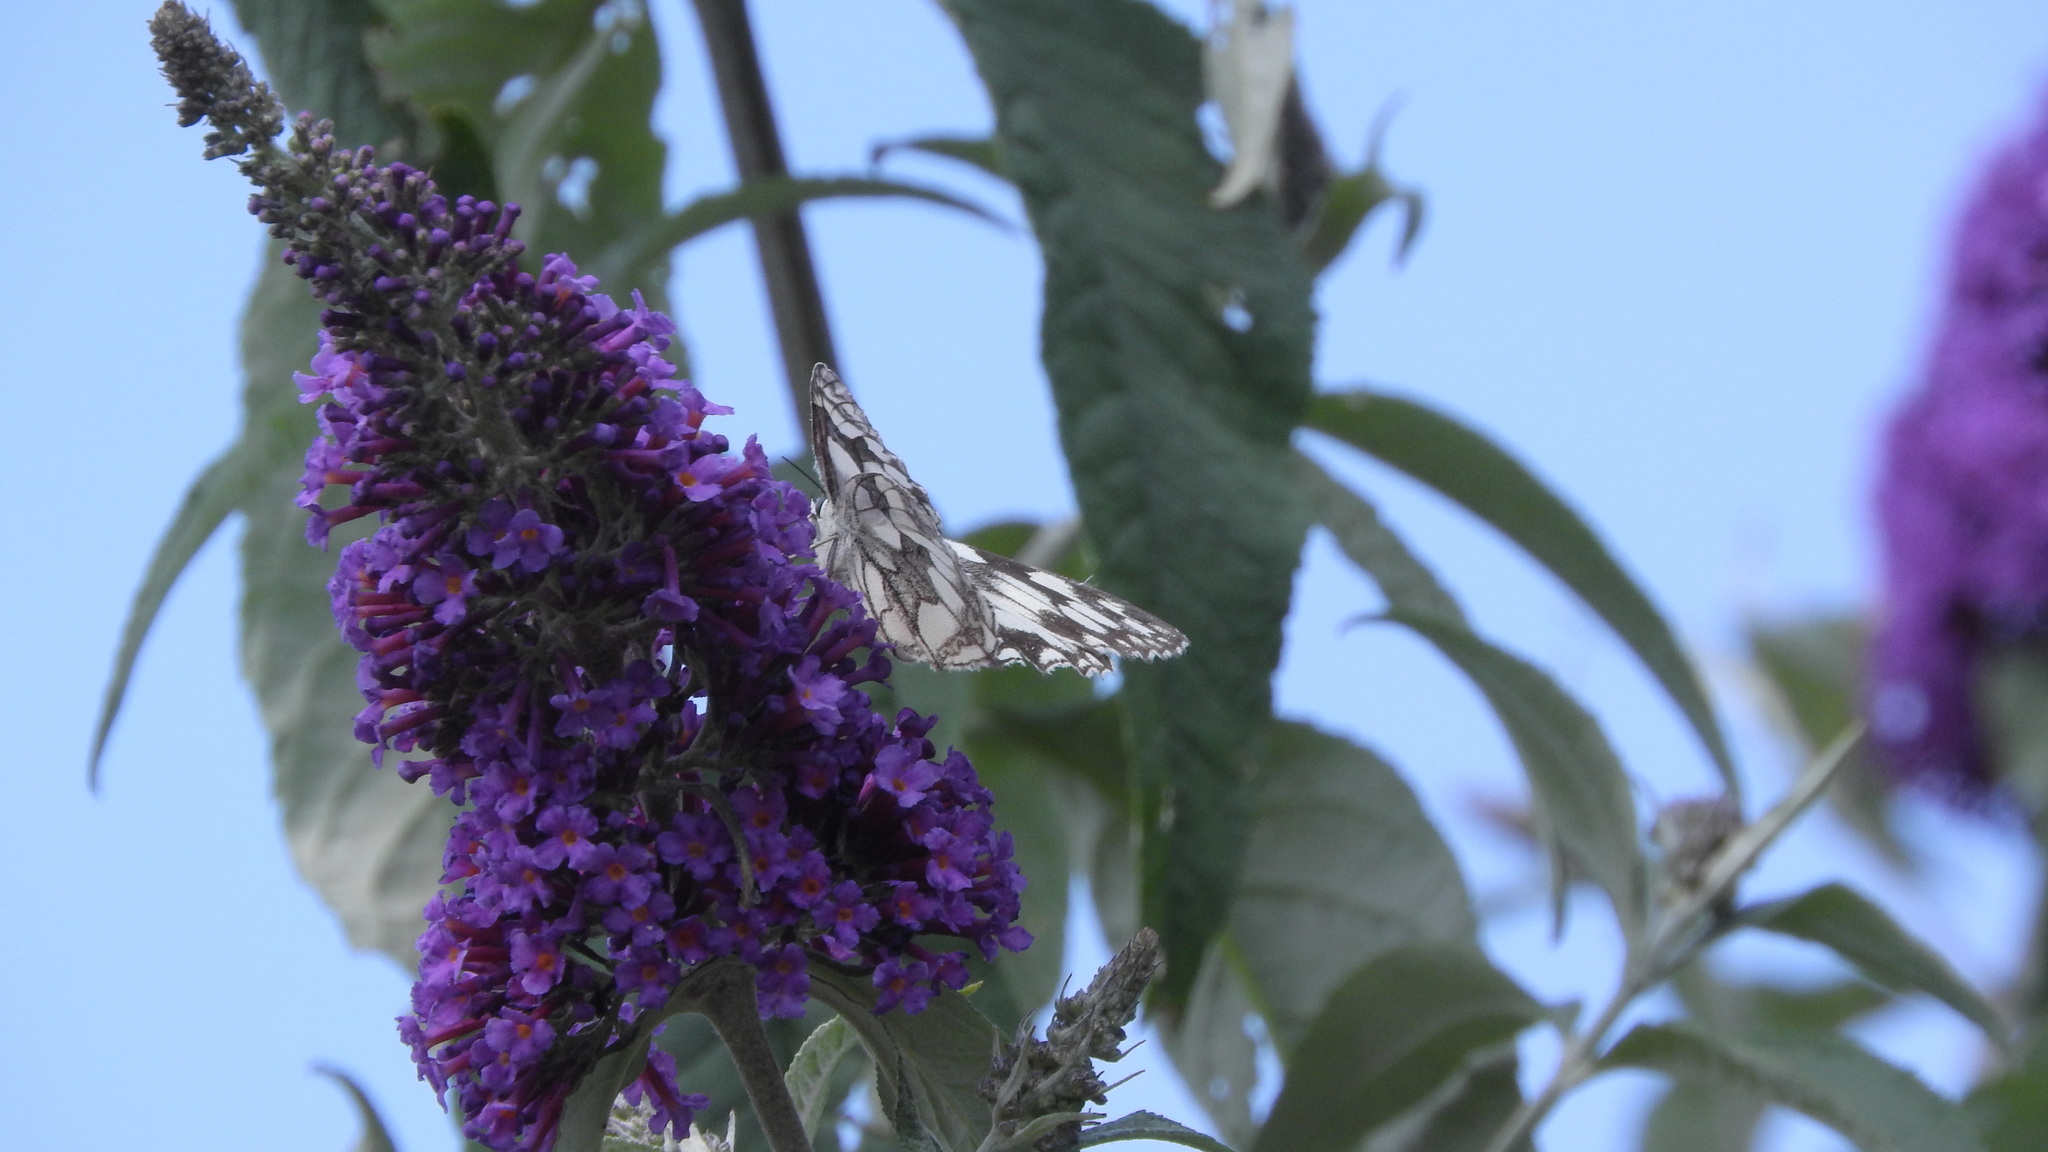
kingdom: Animalia
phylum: Arthropoda
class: Insecta
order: Lepidoptera
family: Nymphalidae
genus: Melanargia
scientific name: Melanargia galathea
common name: Marbled white
